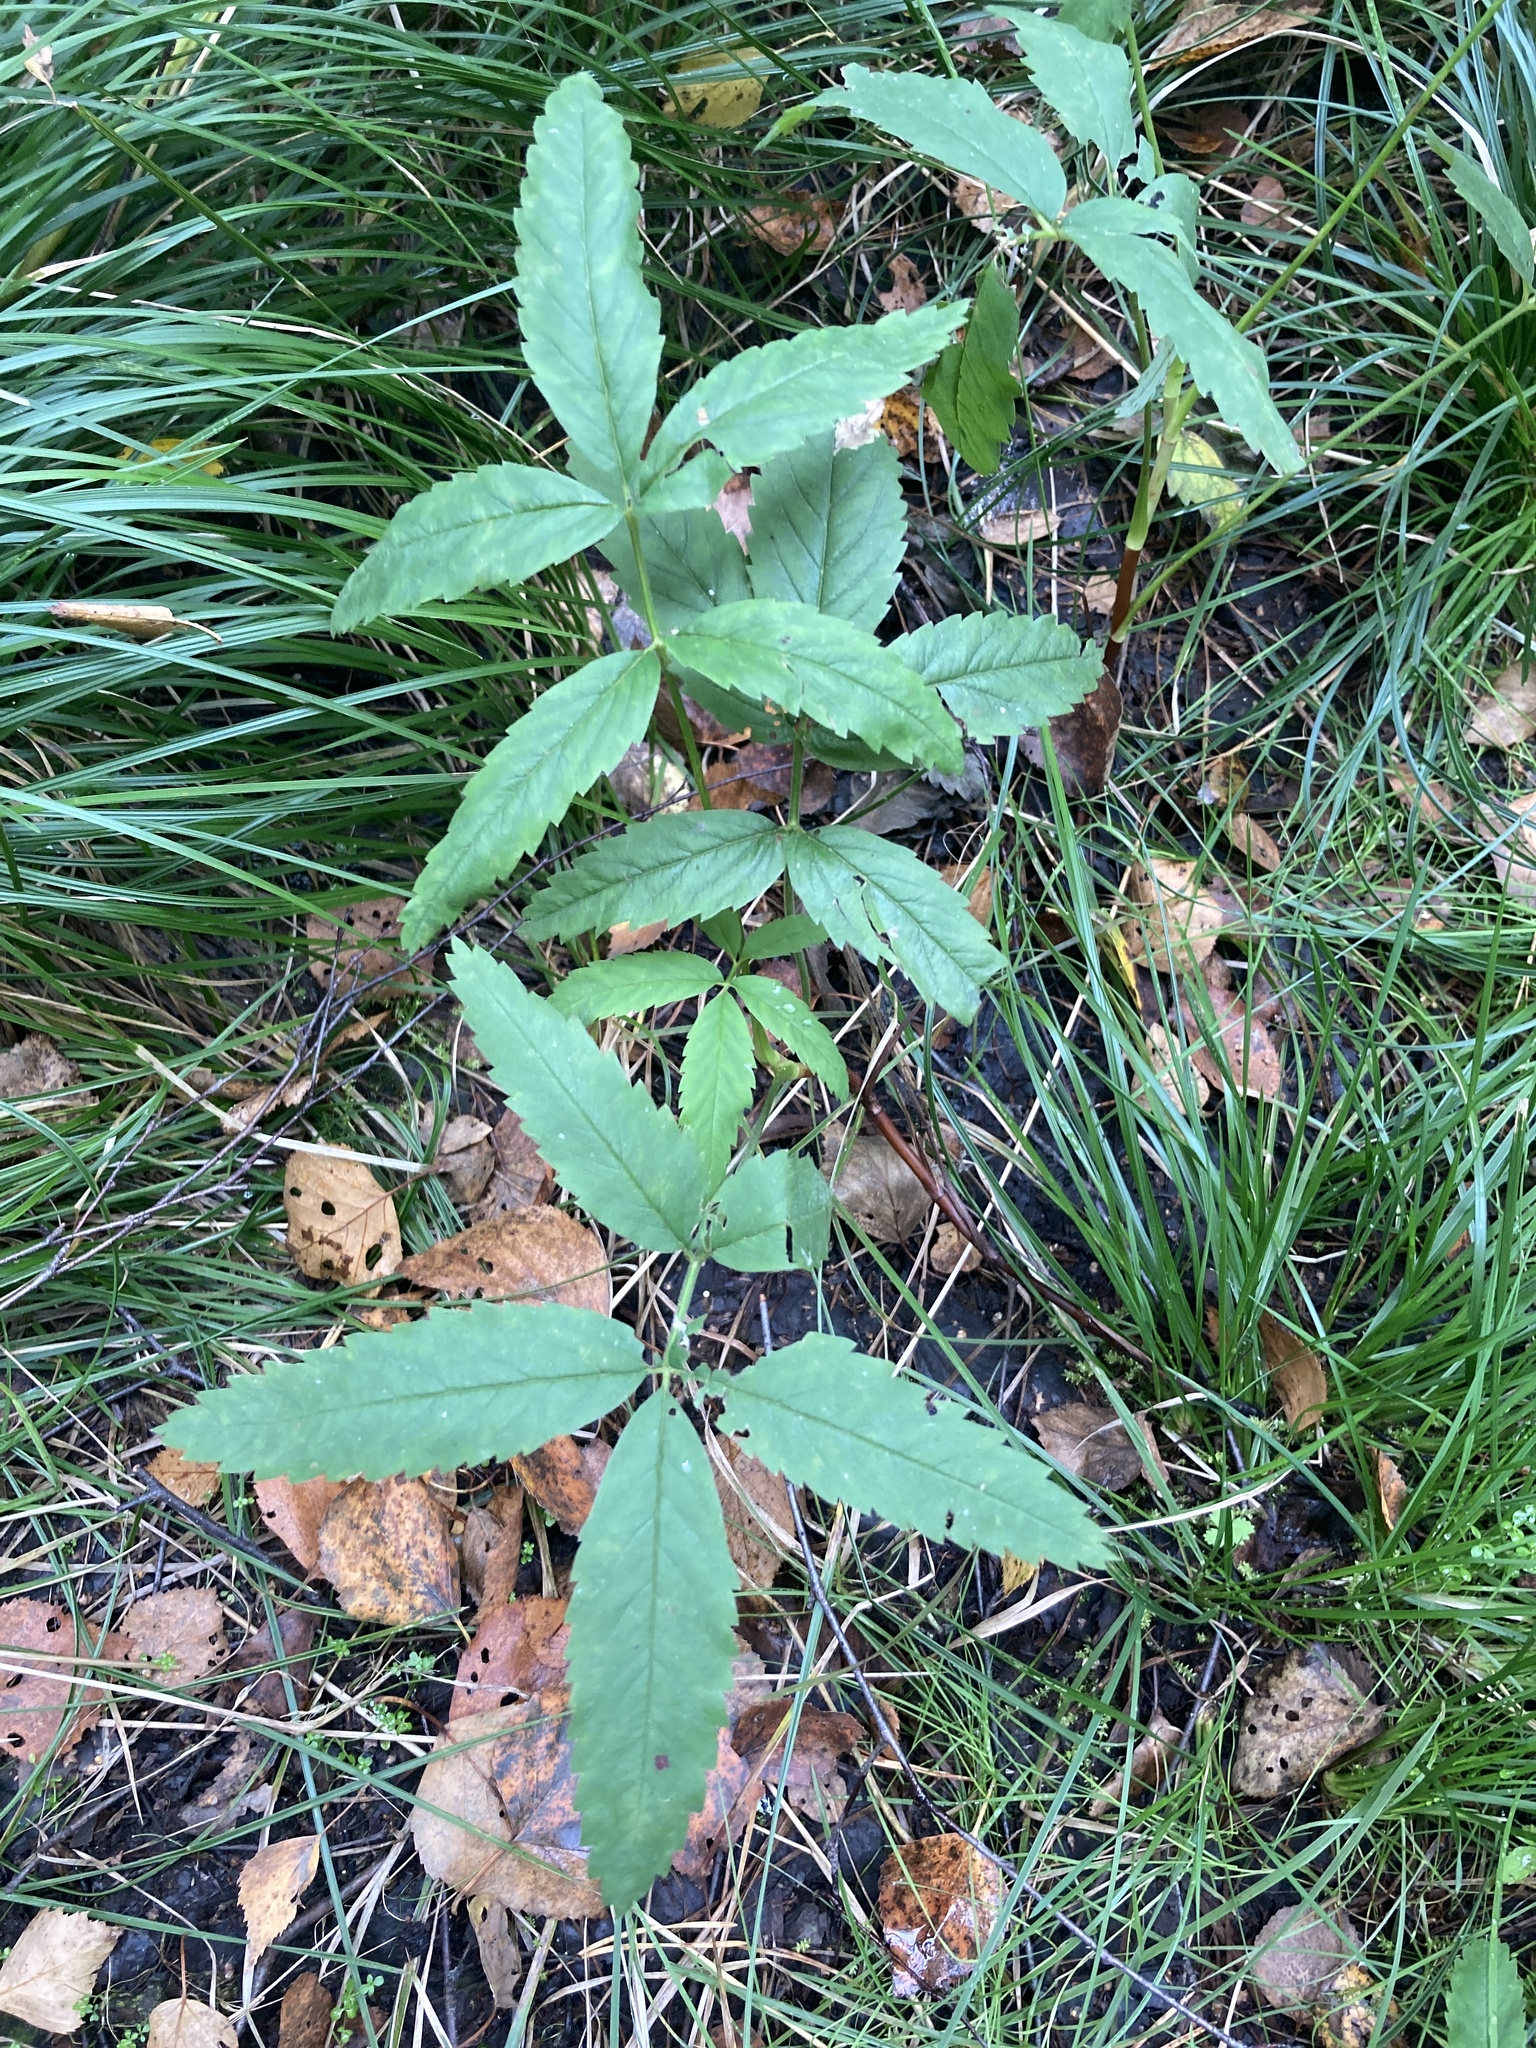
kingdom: Plantae
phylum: Tracheophyta
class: Magnoliopsida
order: Rosales
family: Rosaceae
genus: Comarum
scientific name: Comarum palustre
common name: Marsh cinquefoil
